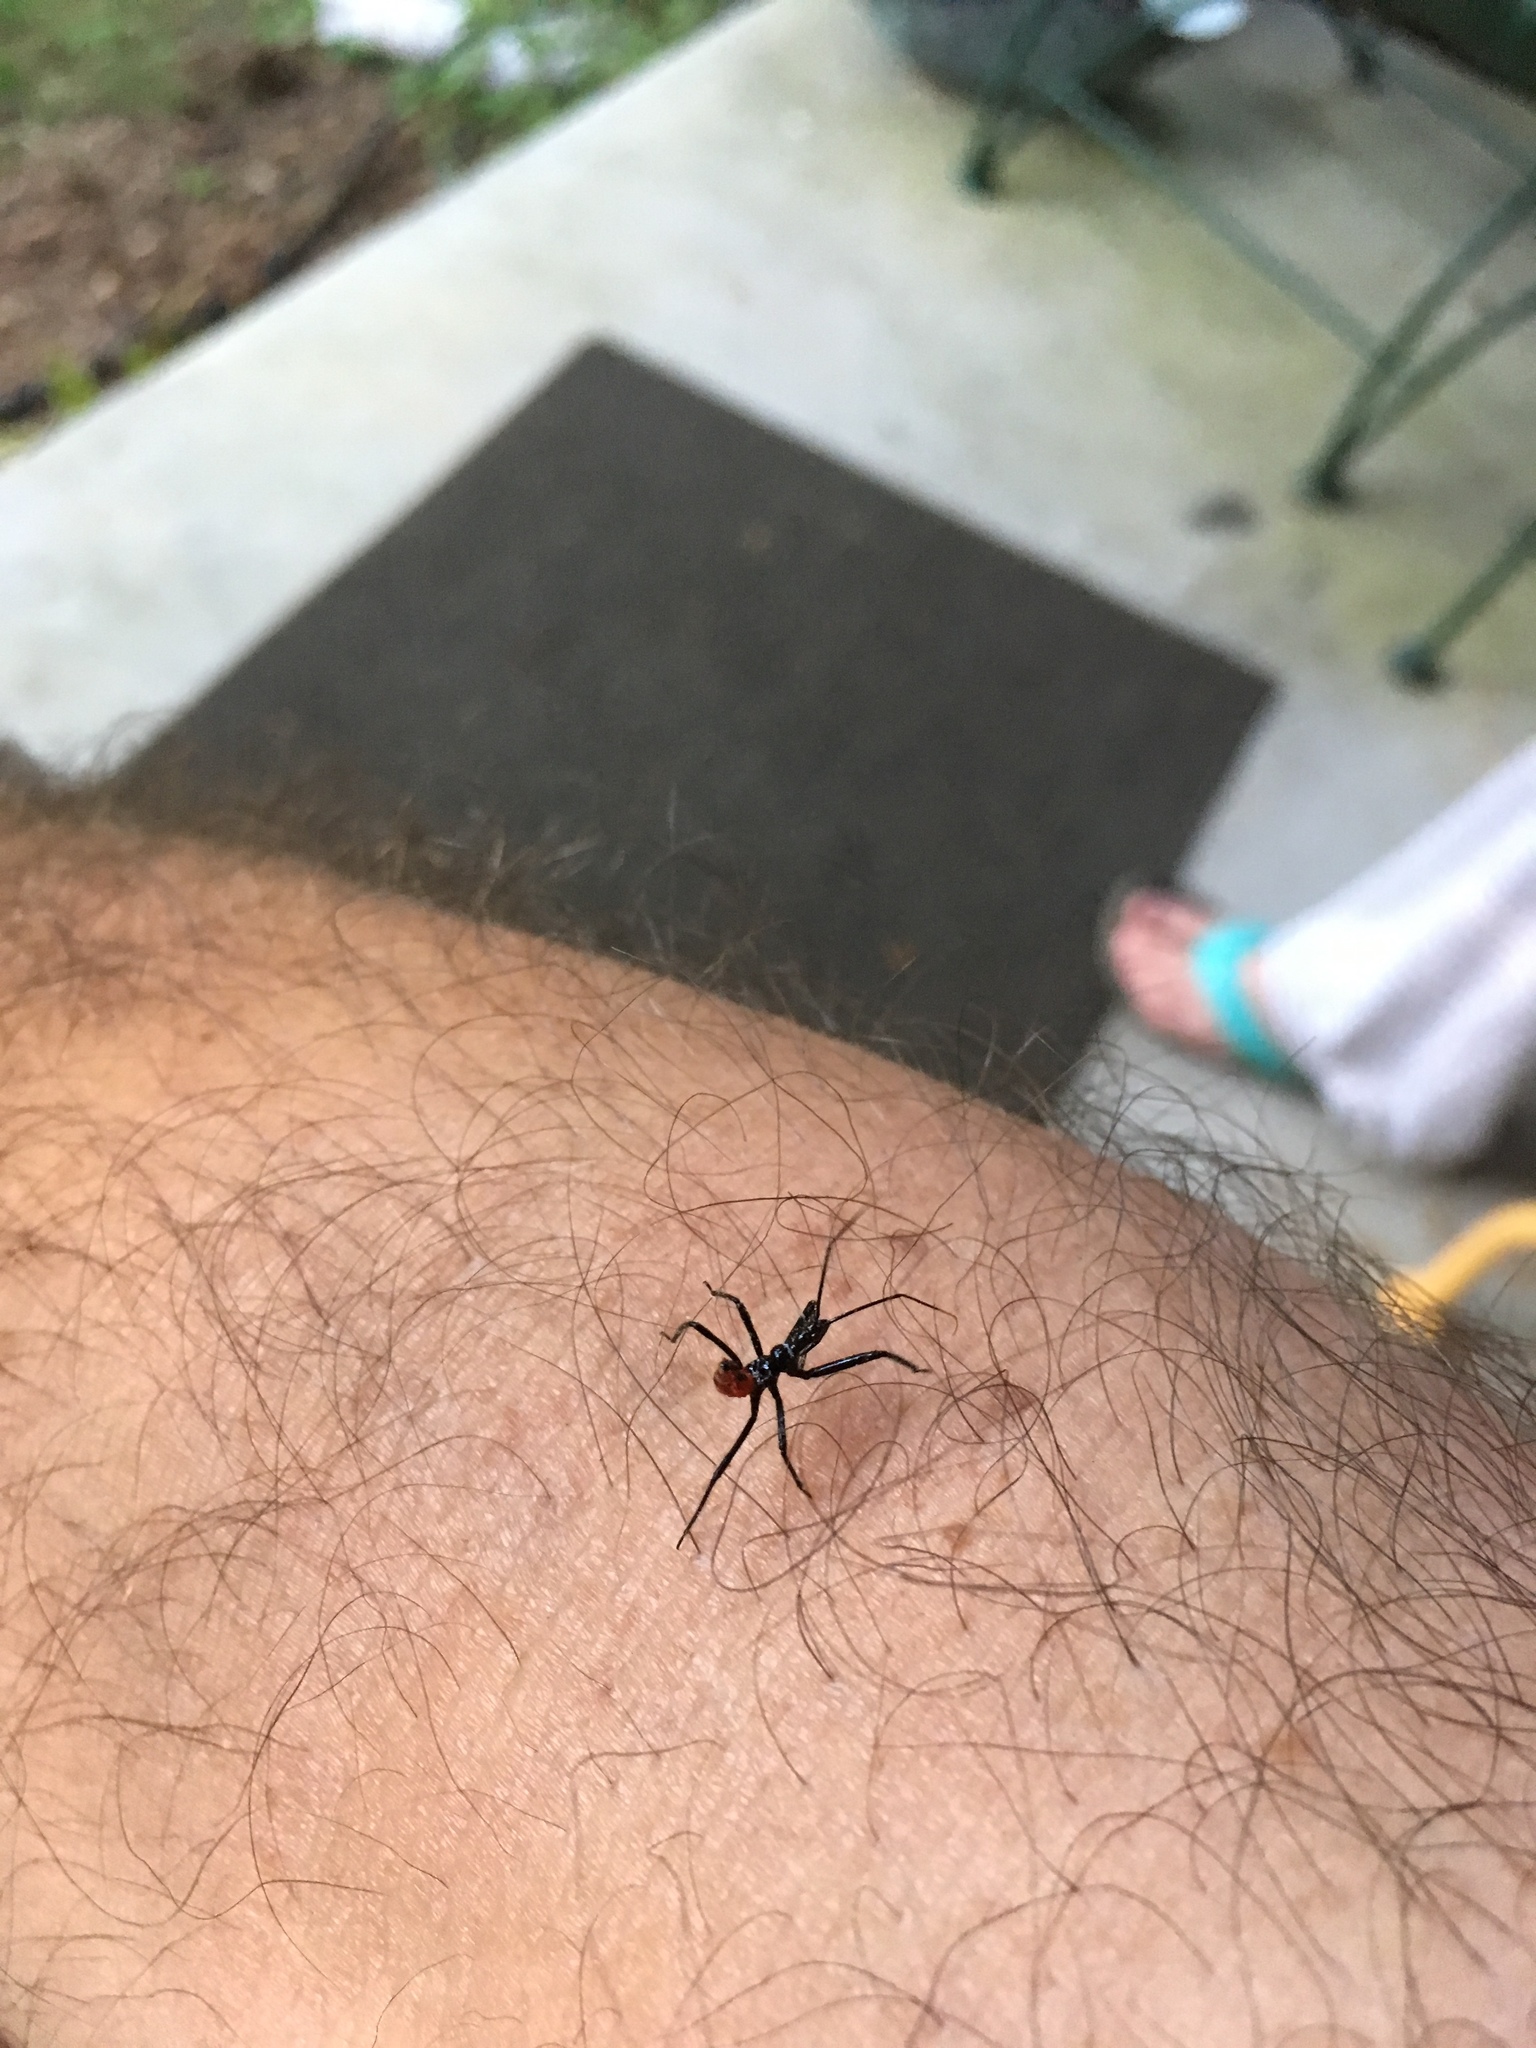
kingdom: Animalia
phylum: Arthropoda
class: Insecta
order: Hemiptera
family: Reduviidae
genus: Arilus
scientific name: Arilus cristatus
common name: North american wheel bug
